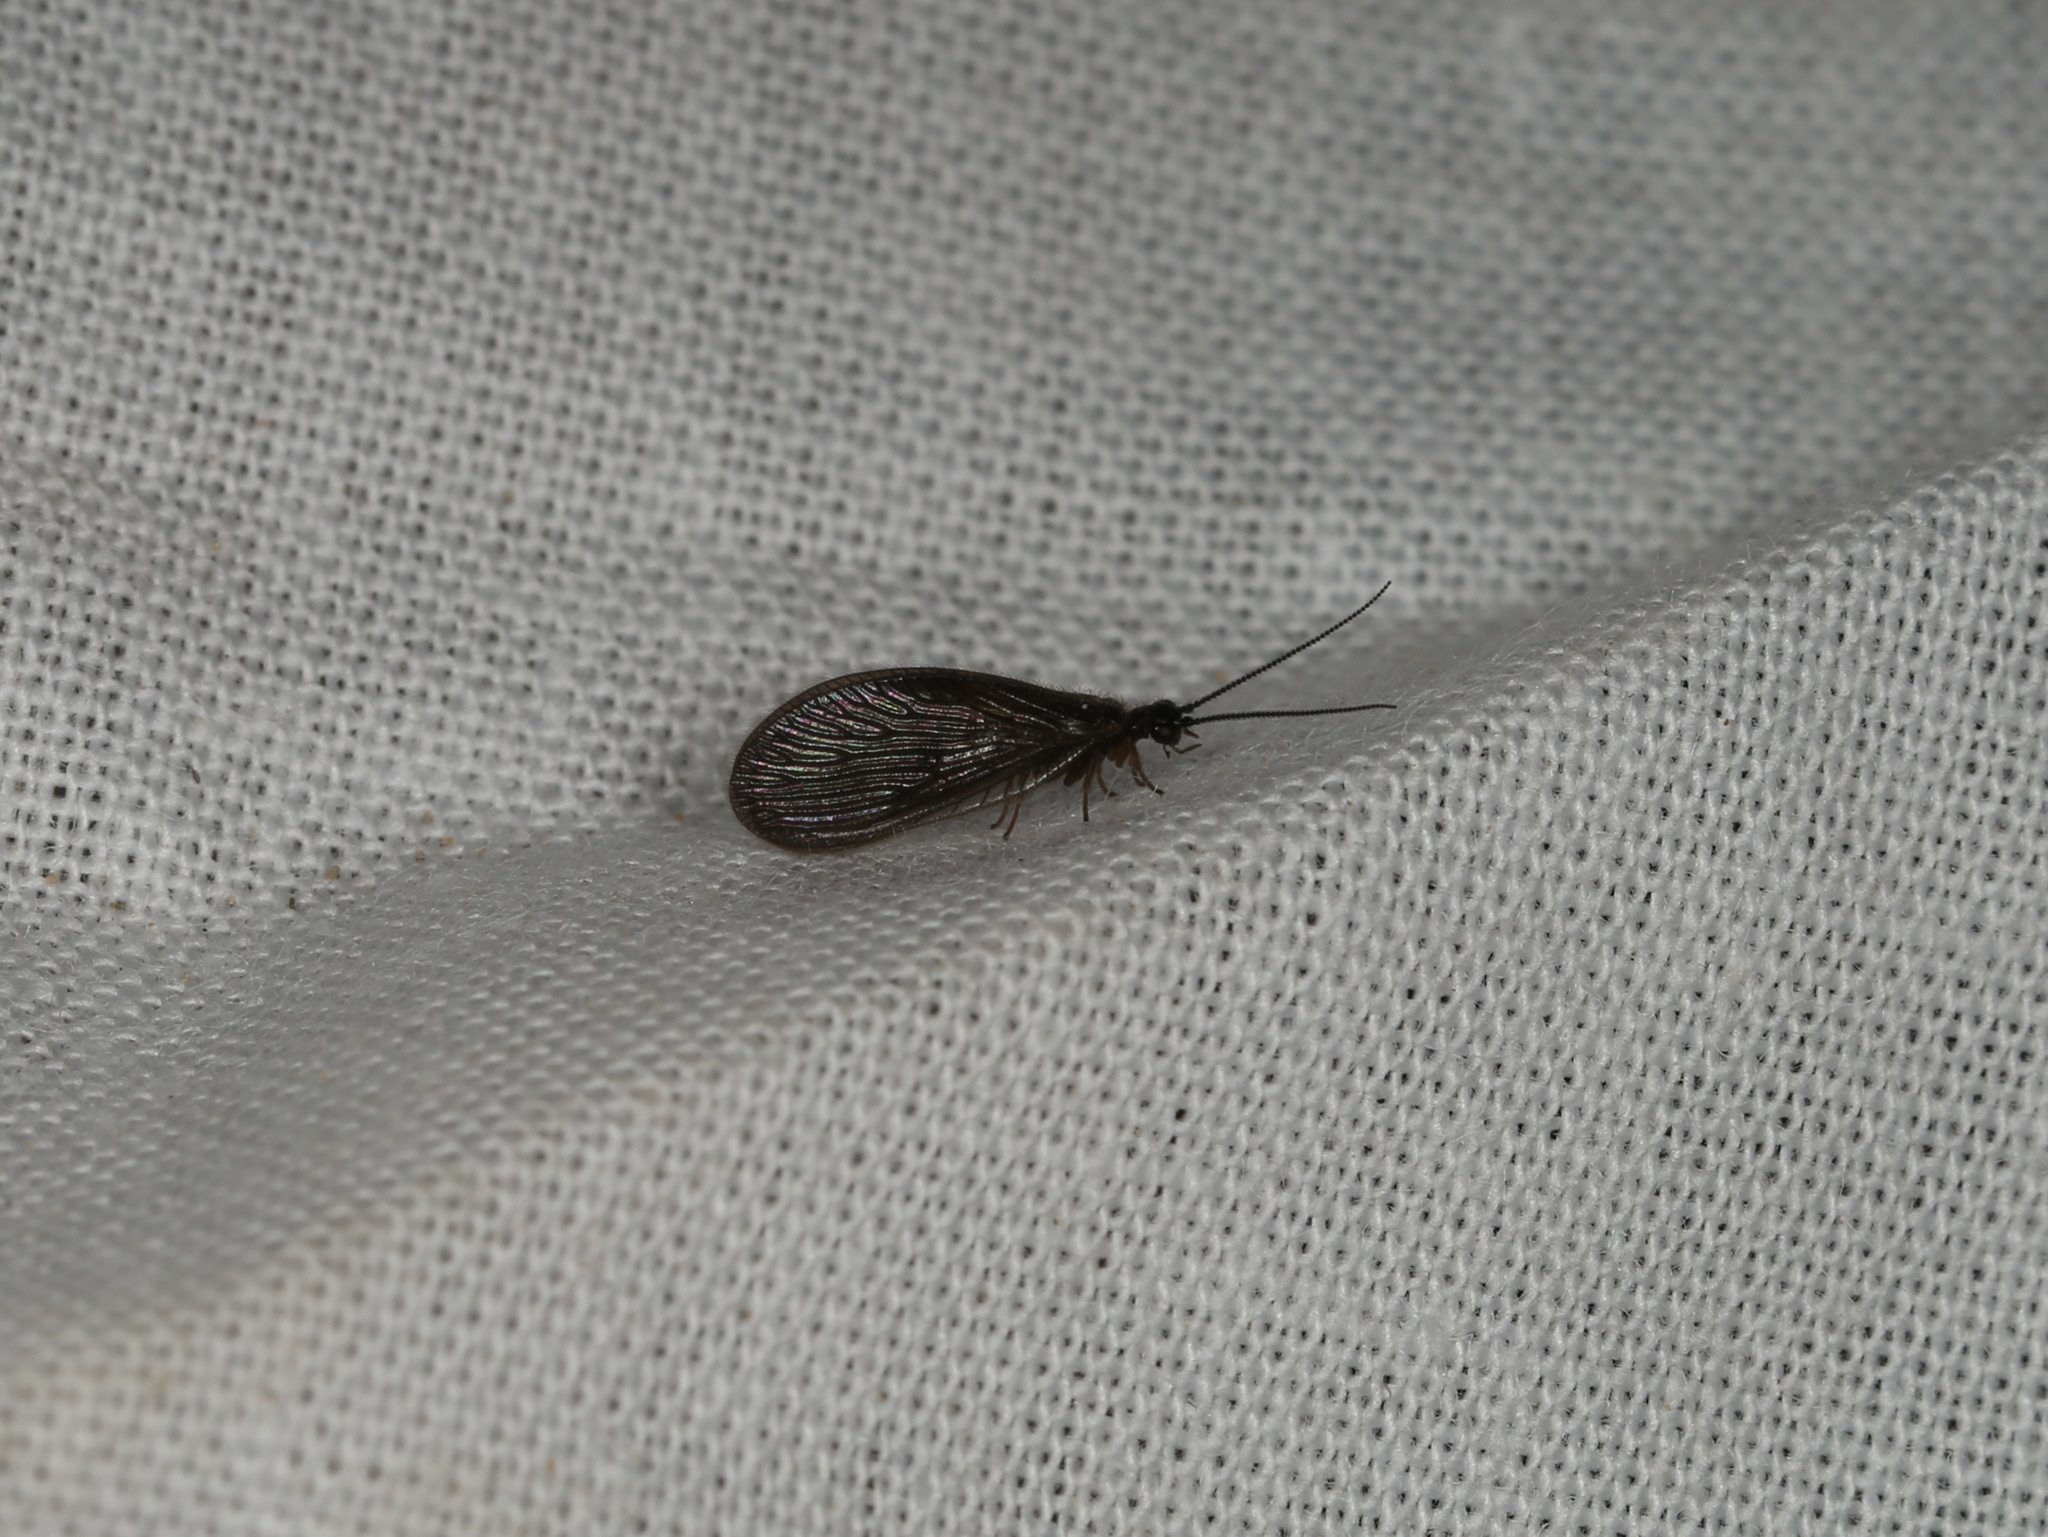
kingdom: Animalia
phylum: Arthropoda
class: Insecta
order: Neuroptera
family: Sisyridae
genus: Sisyra
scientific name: Sisyra nigra
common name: Black spongillafly
